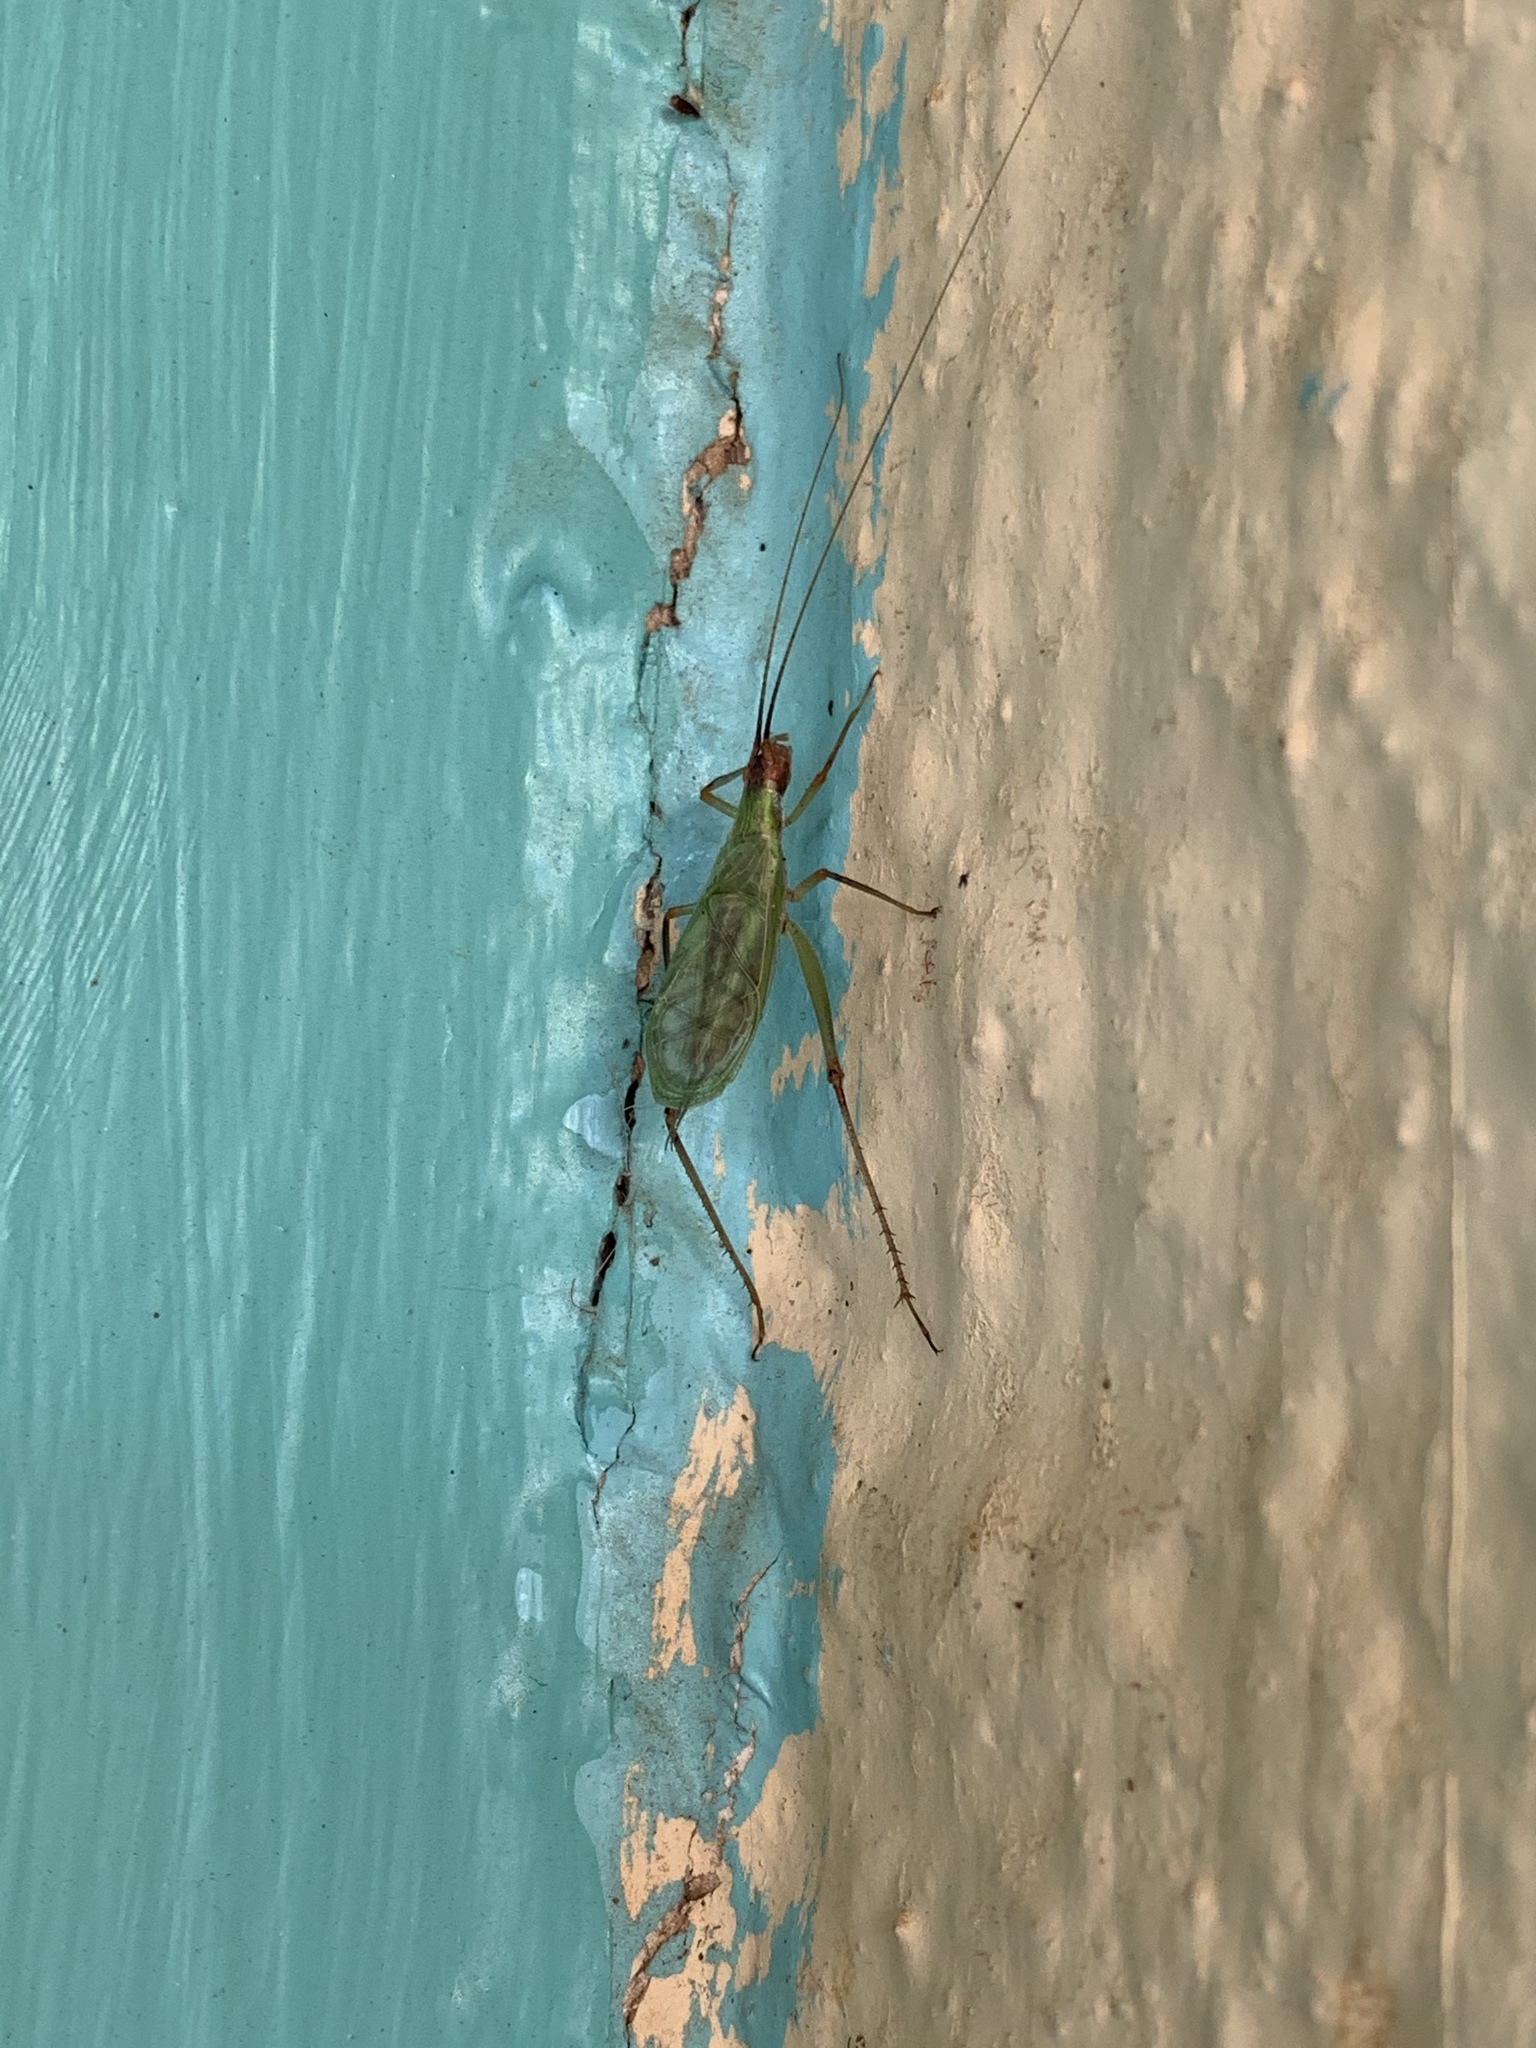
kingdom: Animalia
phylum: Arthropoda
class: Insecta
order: Orthoptera
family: Gryllidae
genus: Oecanthus
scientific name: Oecanthus californicus
